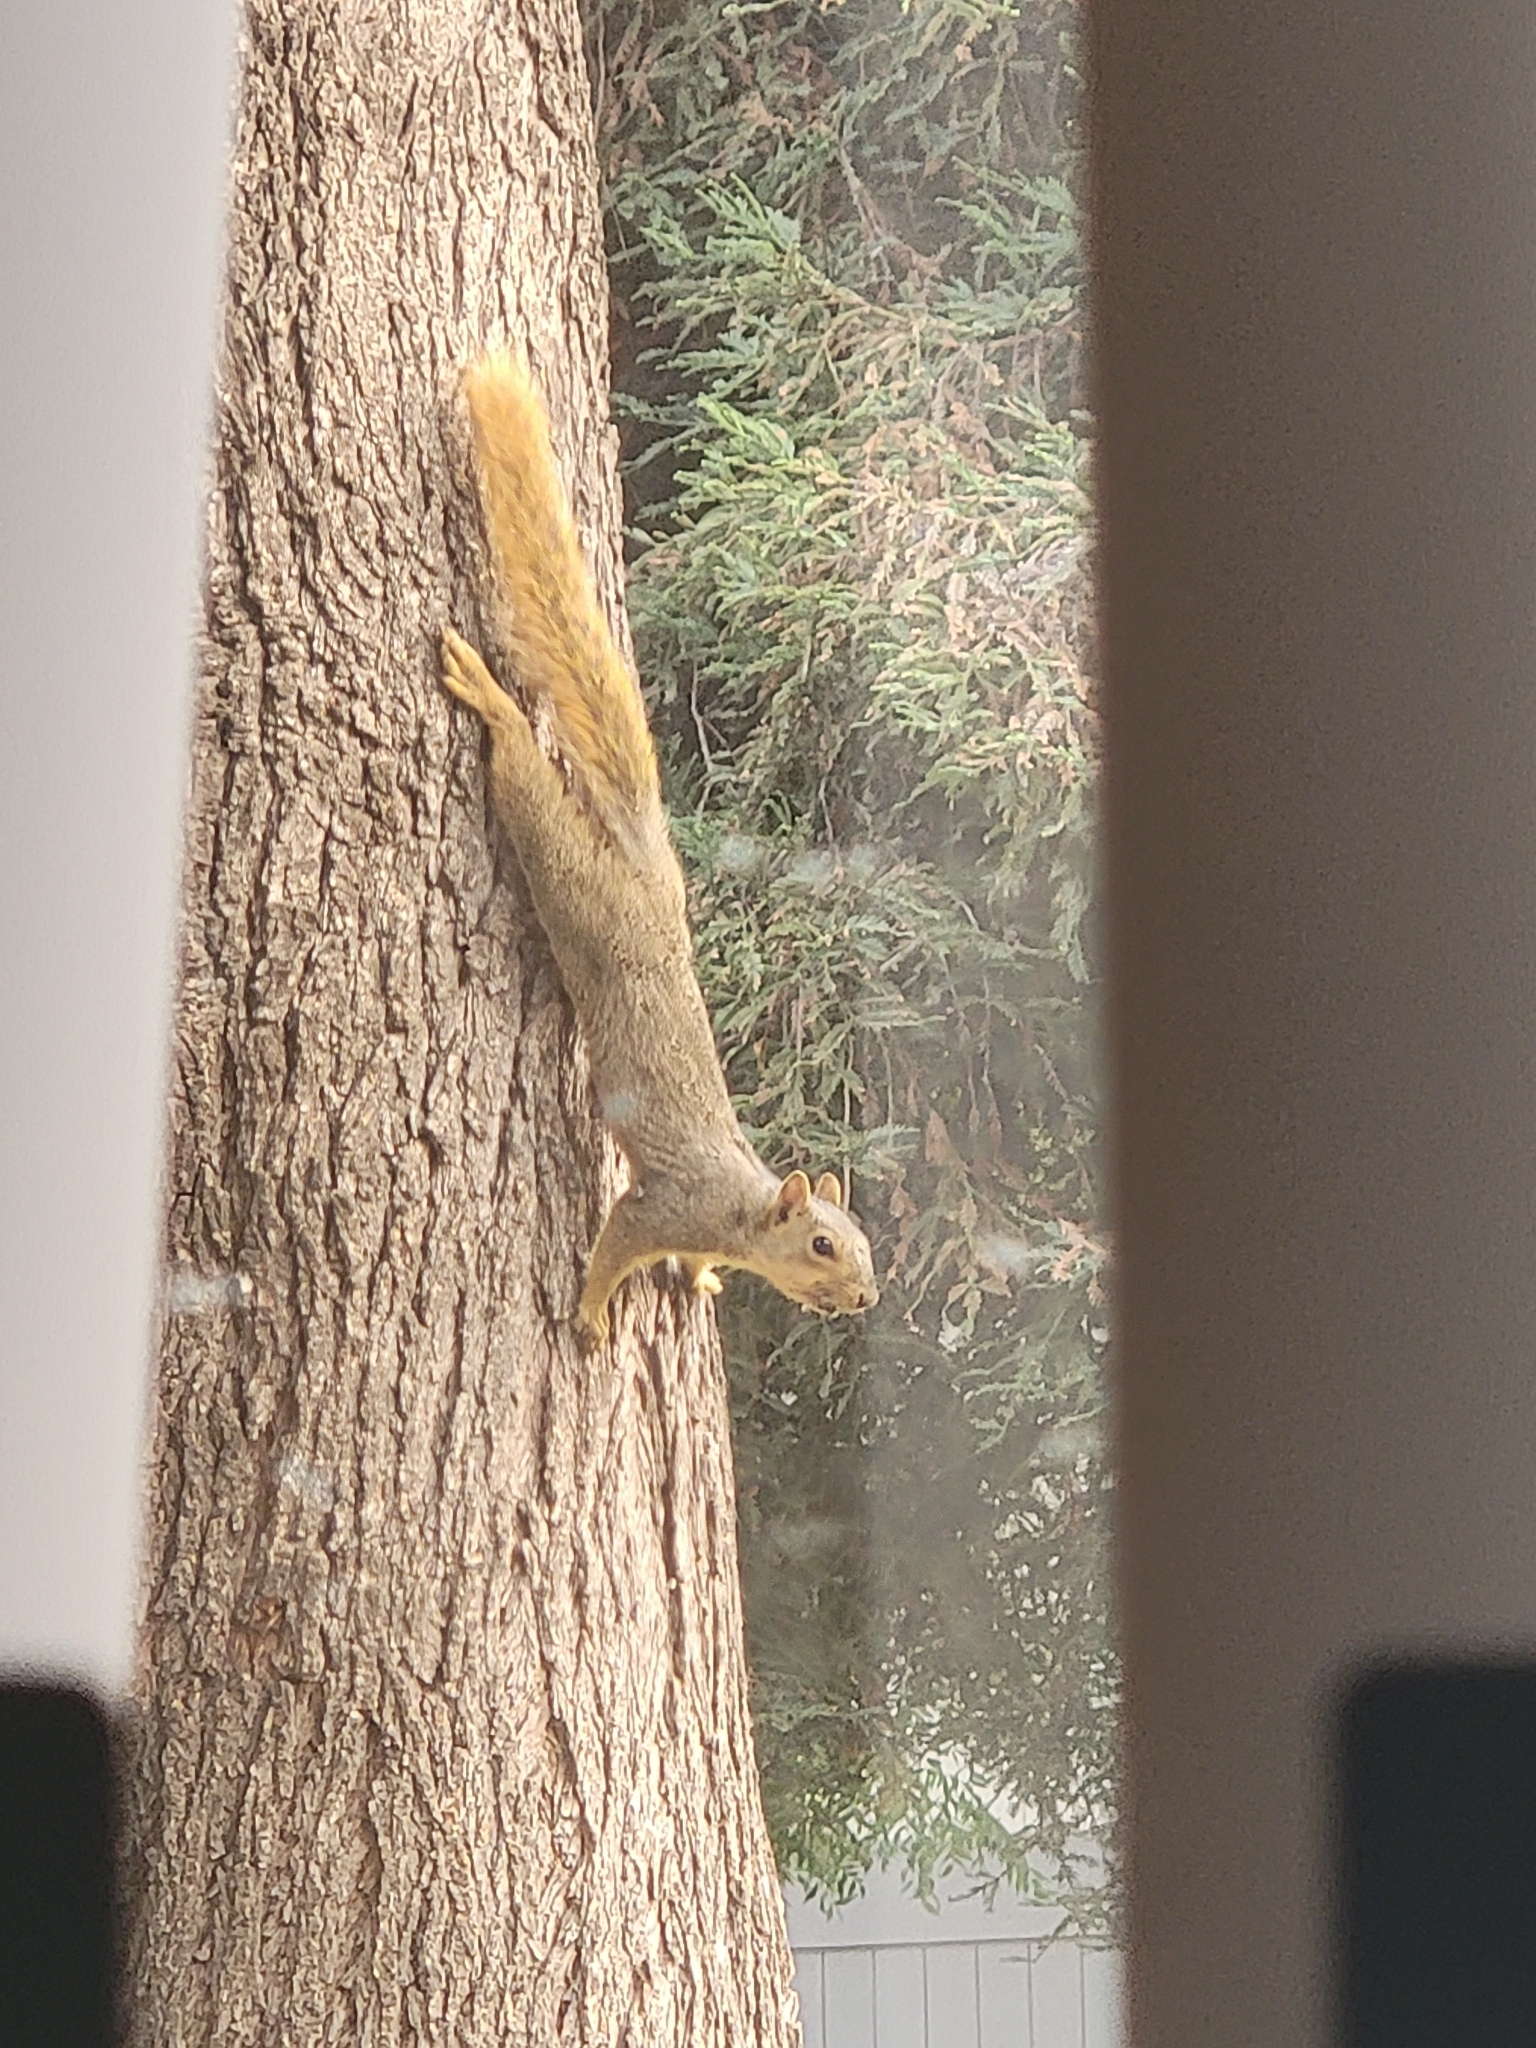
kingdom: Animalia
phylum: Chordata
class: Mammalia
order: Rodentia
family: Sciuridae
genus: Sciurus
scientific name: Sciurus niger
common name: Fox squirrel
